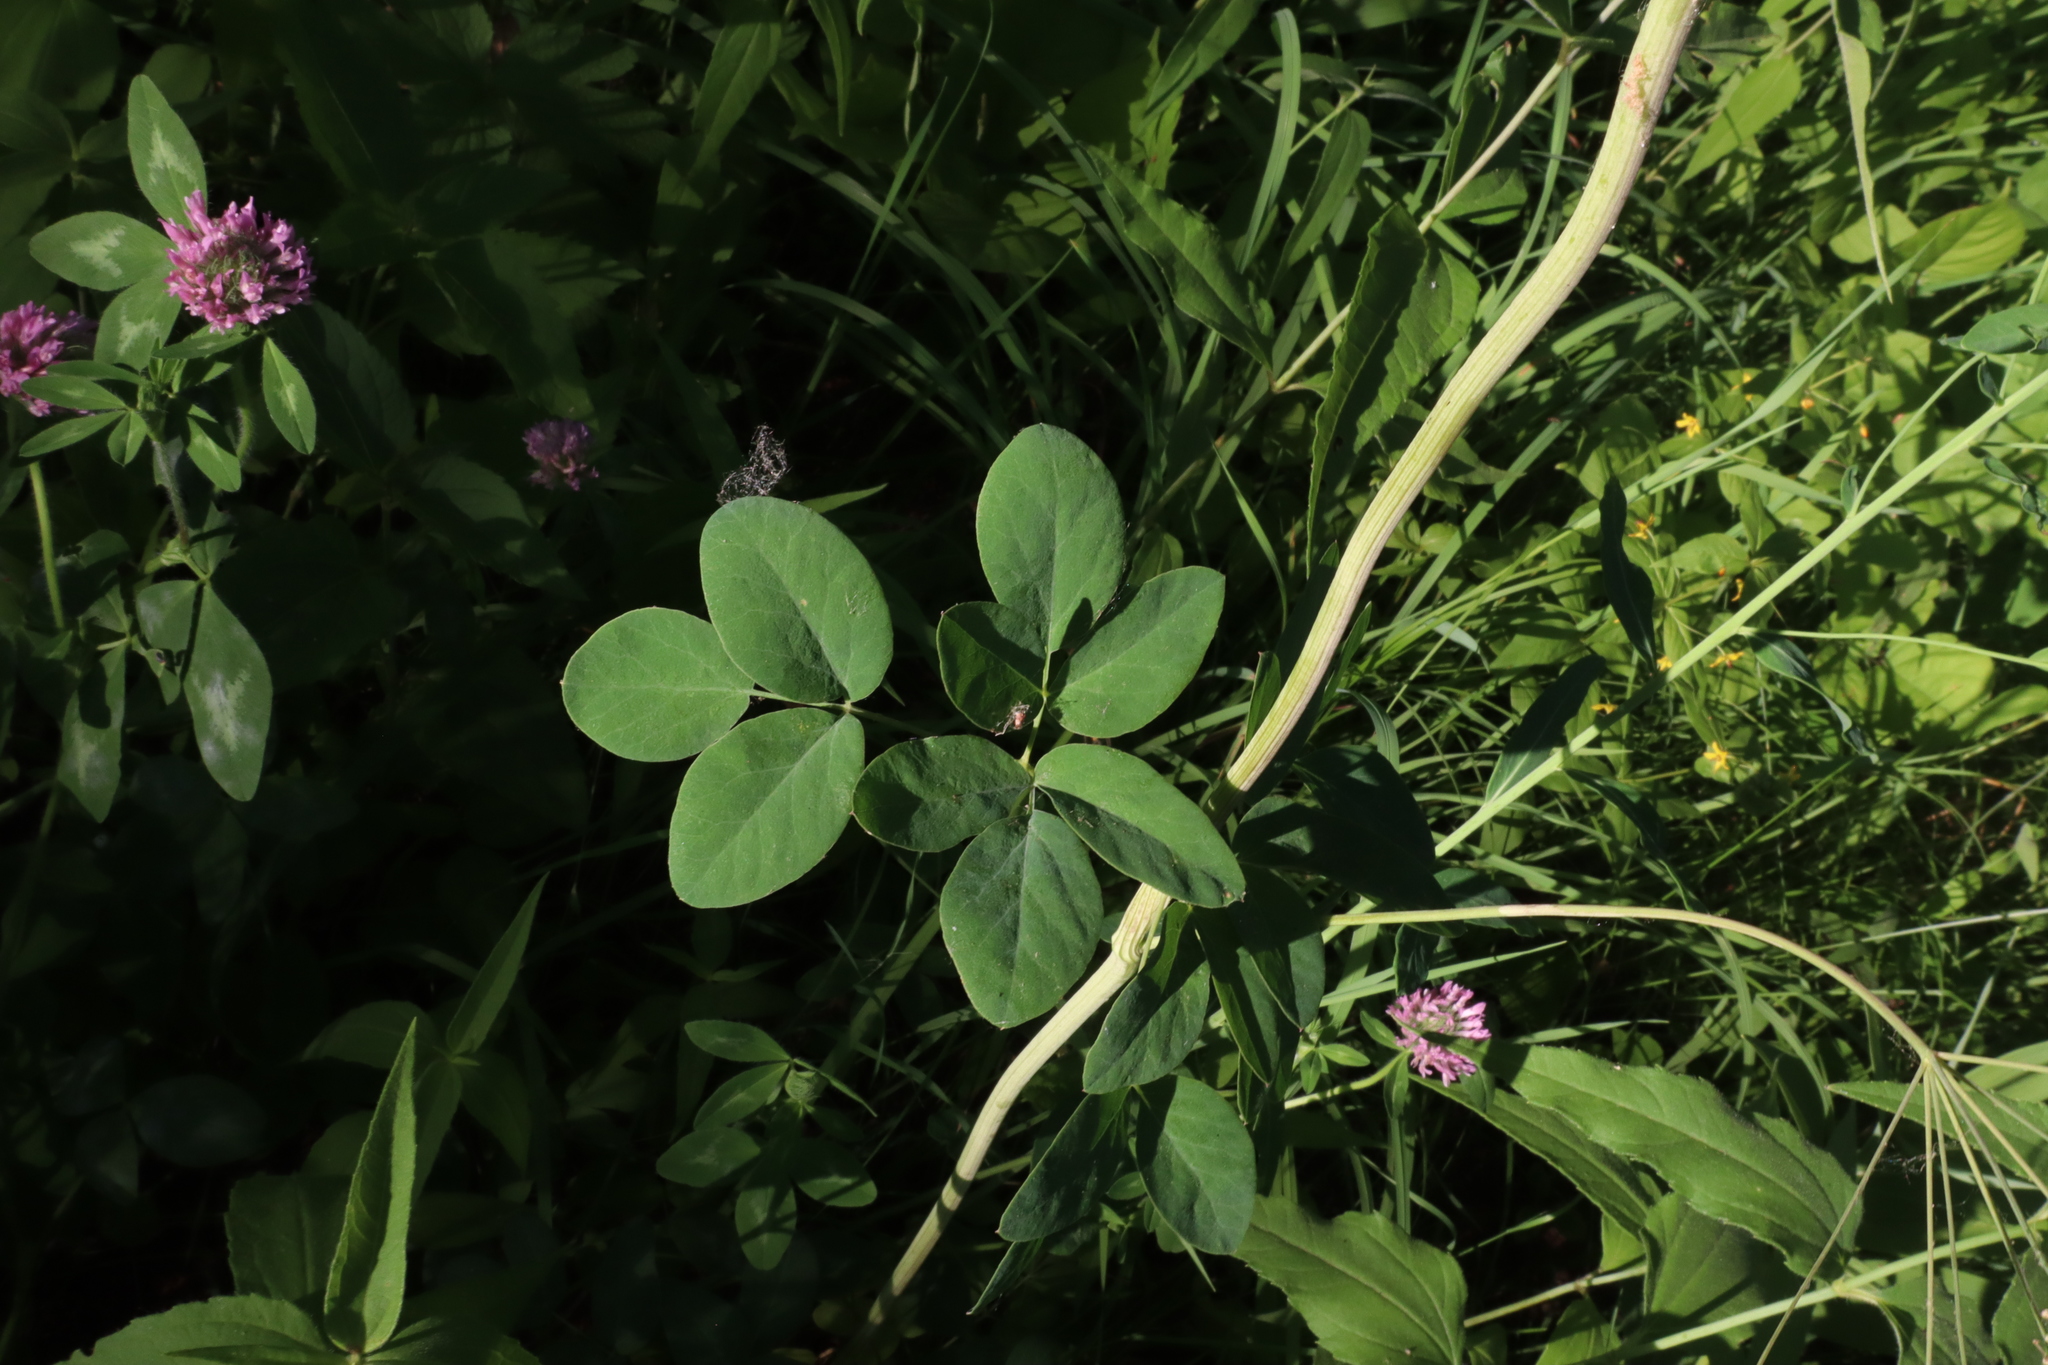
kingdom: Plantae
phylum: Tracheophyta
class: Magnoliopsida
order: Apiales
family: Apiaceae
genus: Taenidia
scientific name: Taenidia integerrima
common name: Golden alexander
